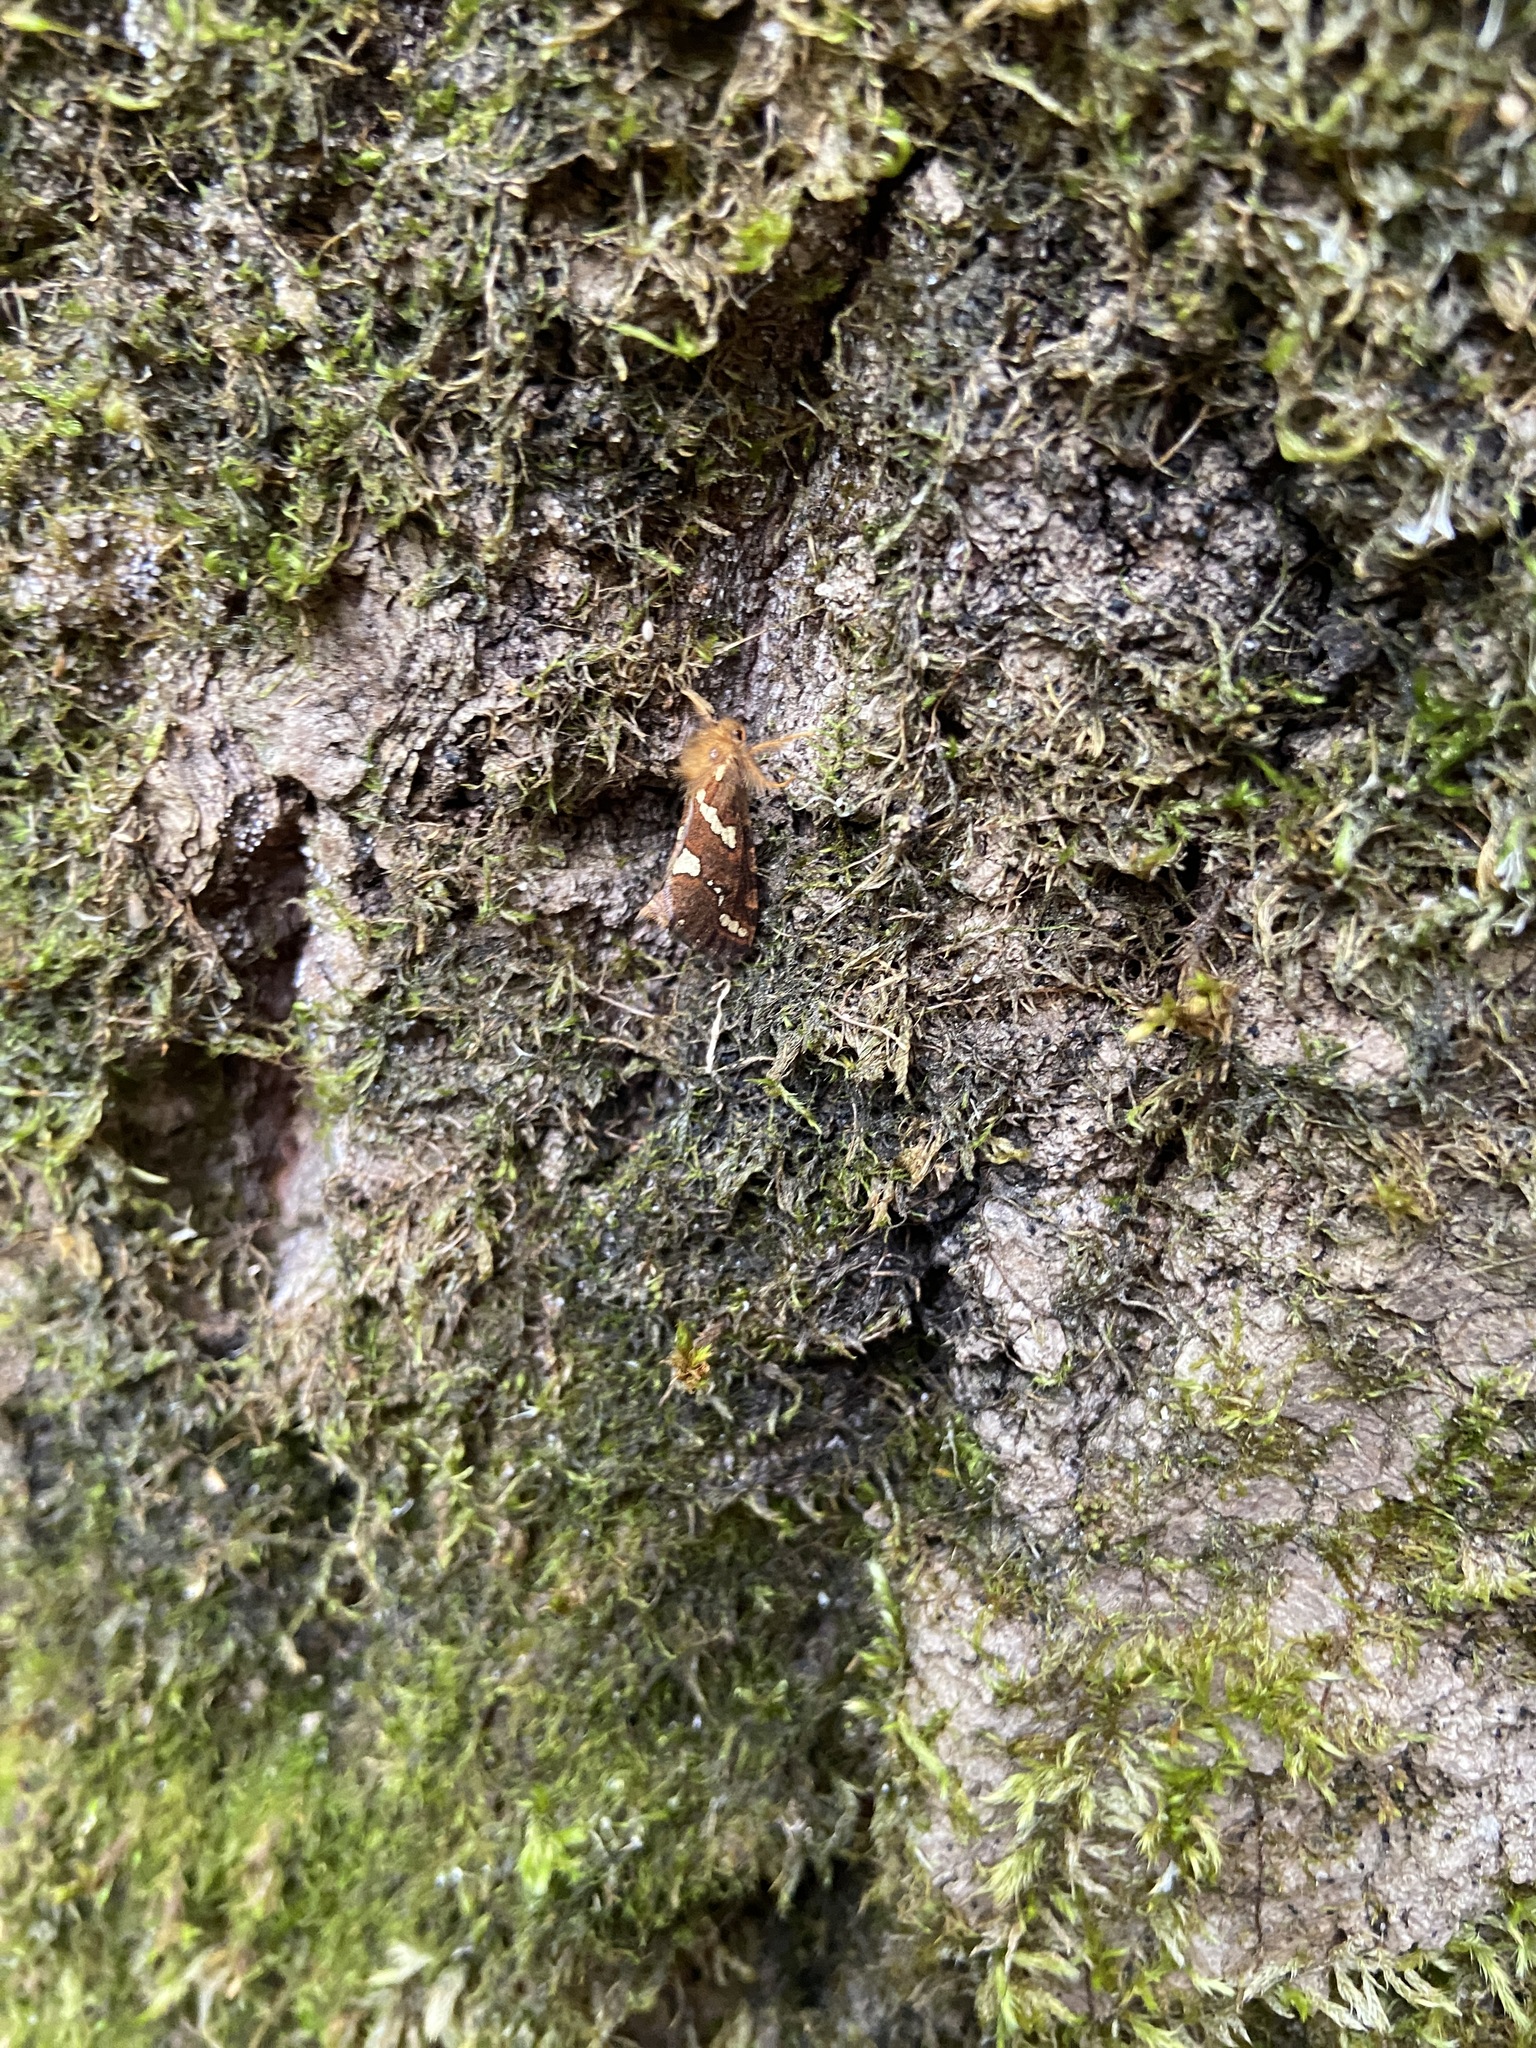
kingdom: Animalia
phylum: Arthropoda
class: Insecta
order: Lepidoptera
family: Hepialidae
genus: Phymatopus
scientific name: Phymatopus hecta
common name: Gold swift
